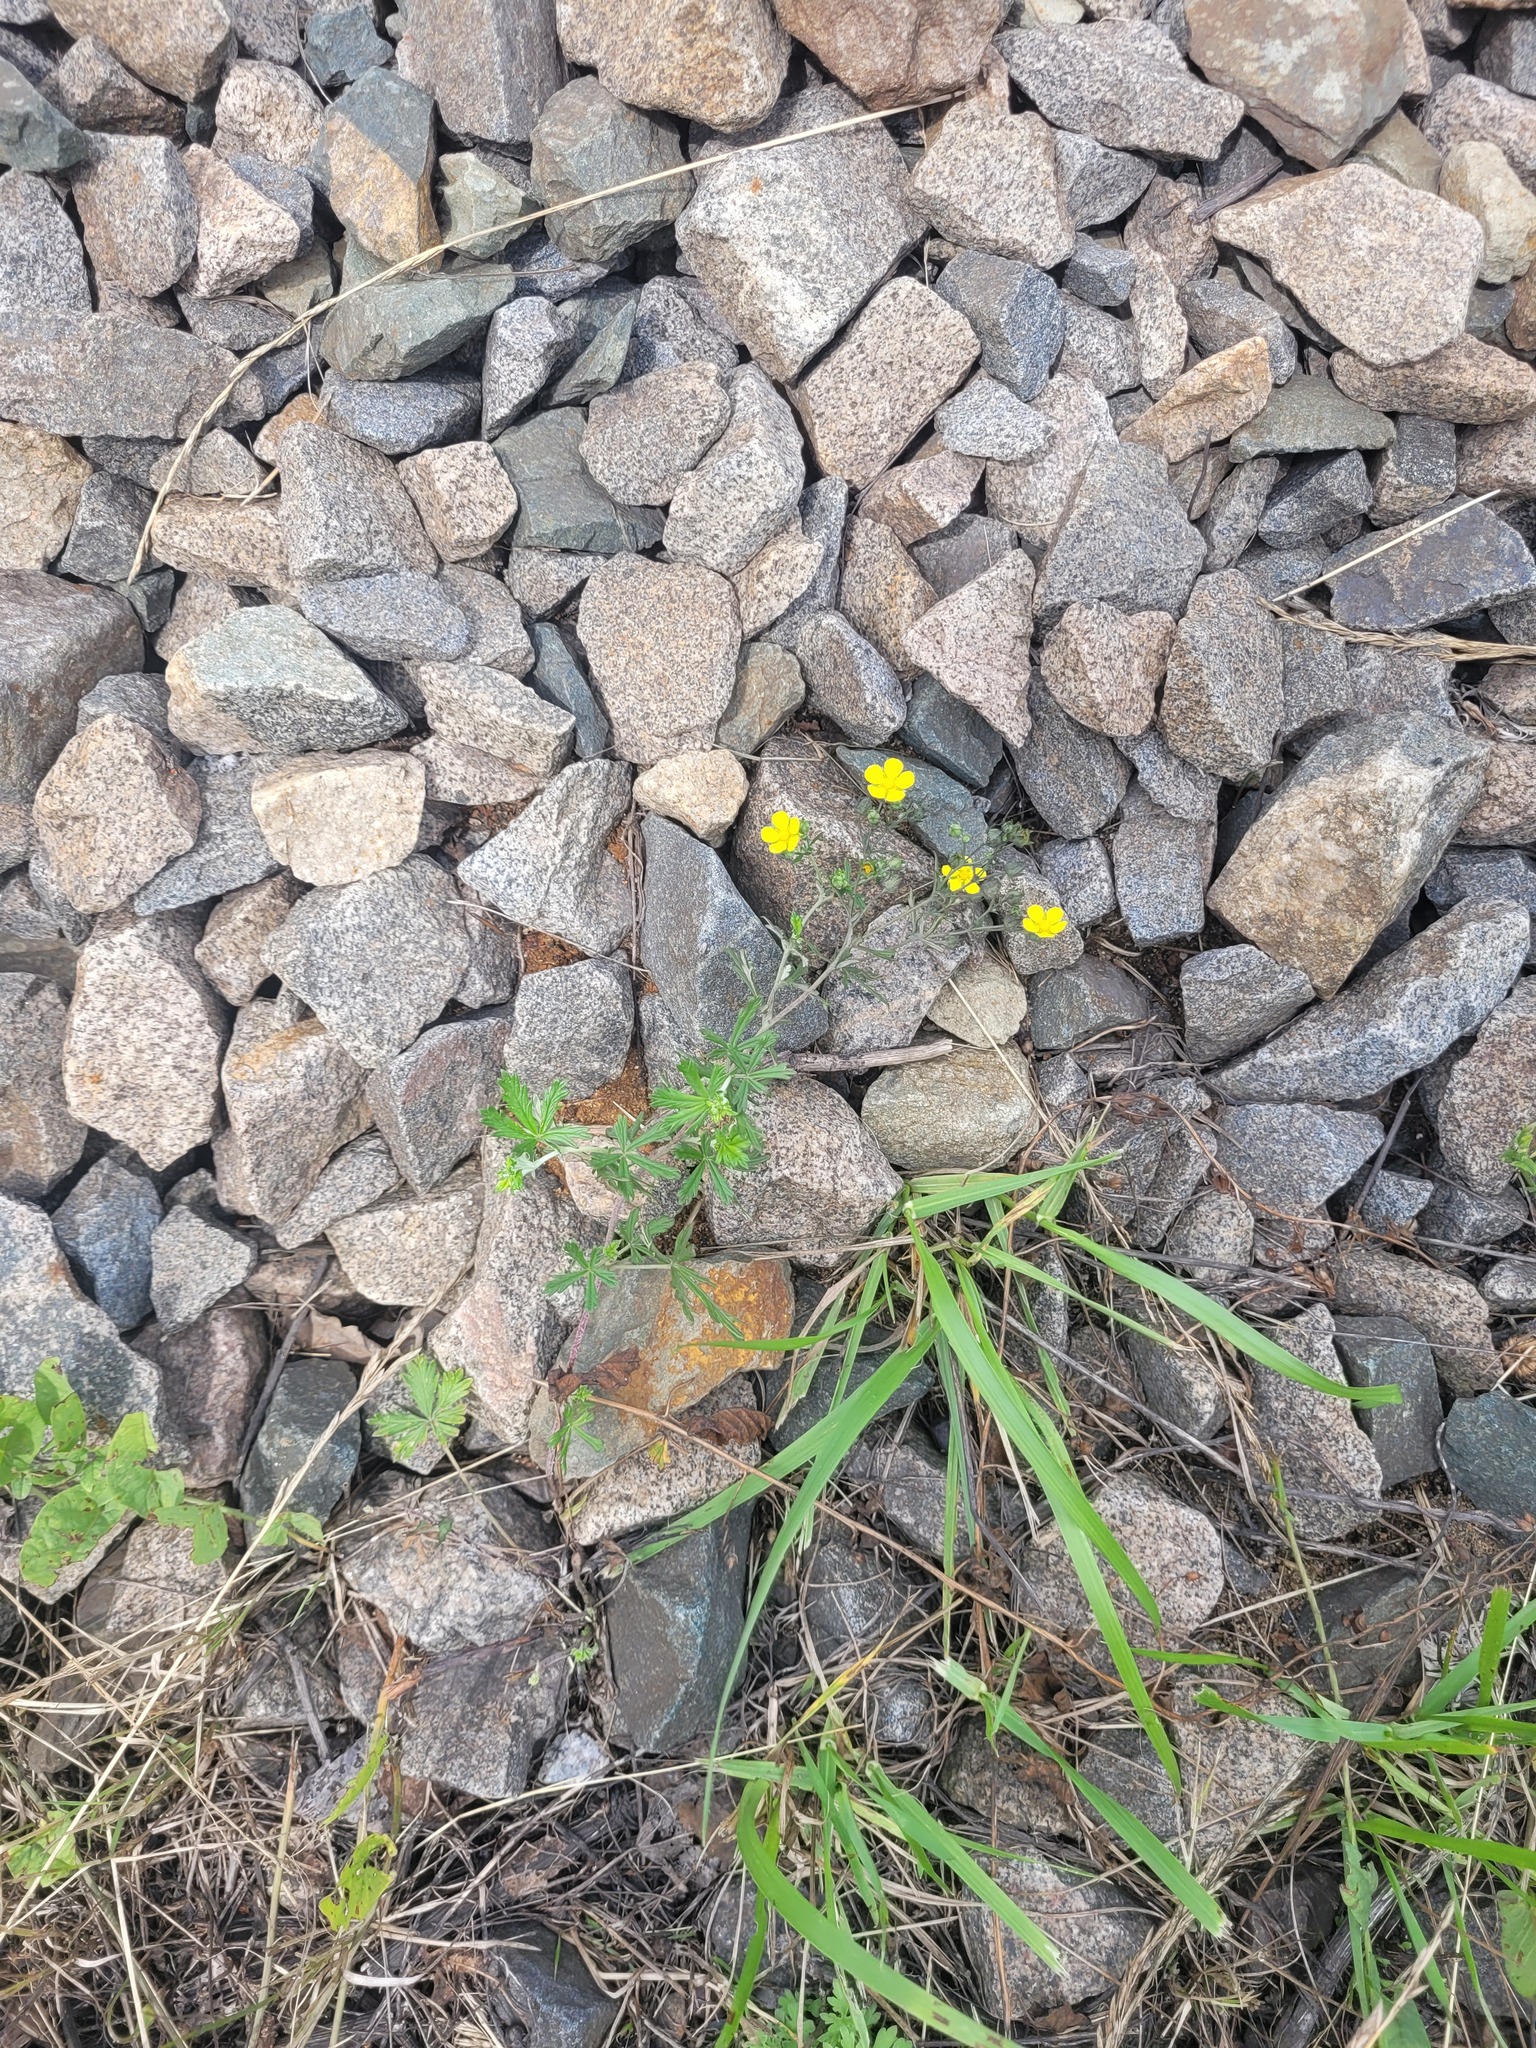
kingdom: Plantae
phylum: Tracheophyta
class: Magnoliopsida
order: Rosales
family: Rosaceae
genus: Potentilla
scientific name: Potentilla argentea
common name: Hoary cinquefoil
